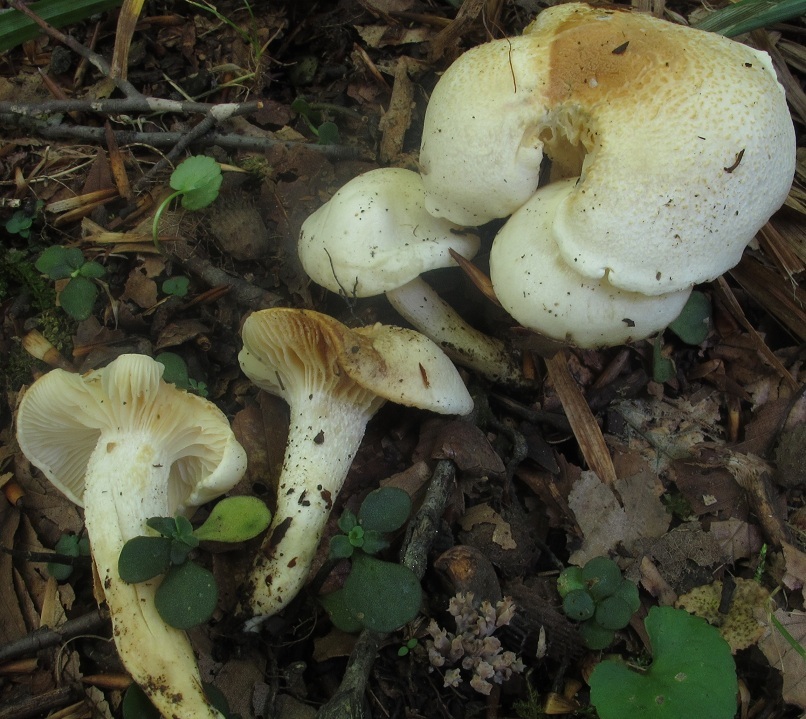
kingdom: Fungi
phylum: Basidiomycota
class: Agaricomycetes
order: Agaricales
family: Hygrophoraceae
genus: Hygrophorus
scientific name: Hygrophorus eburneus
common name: Ivory wax-cap
